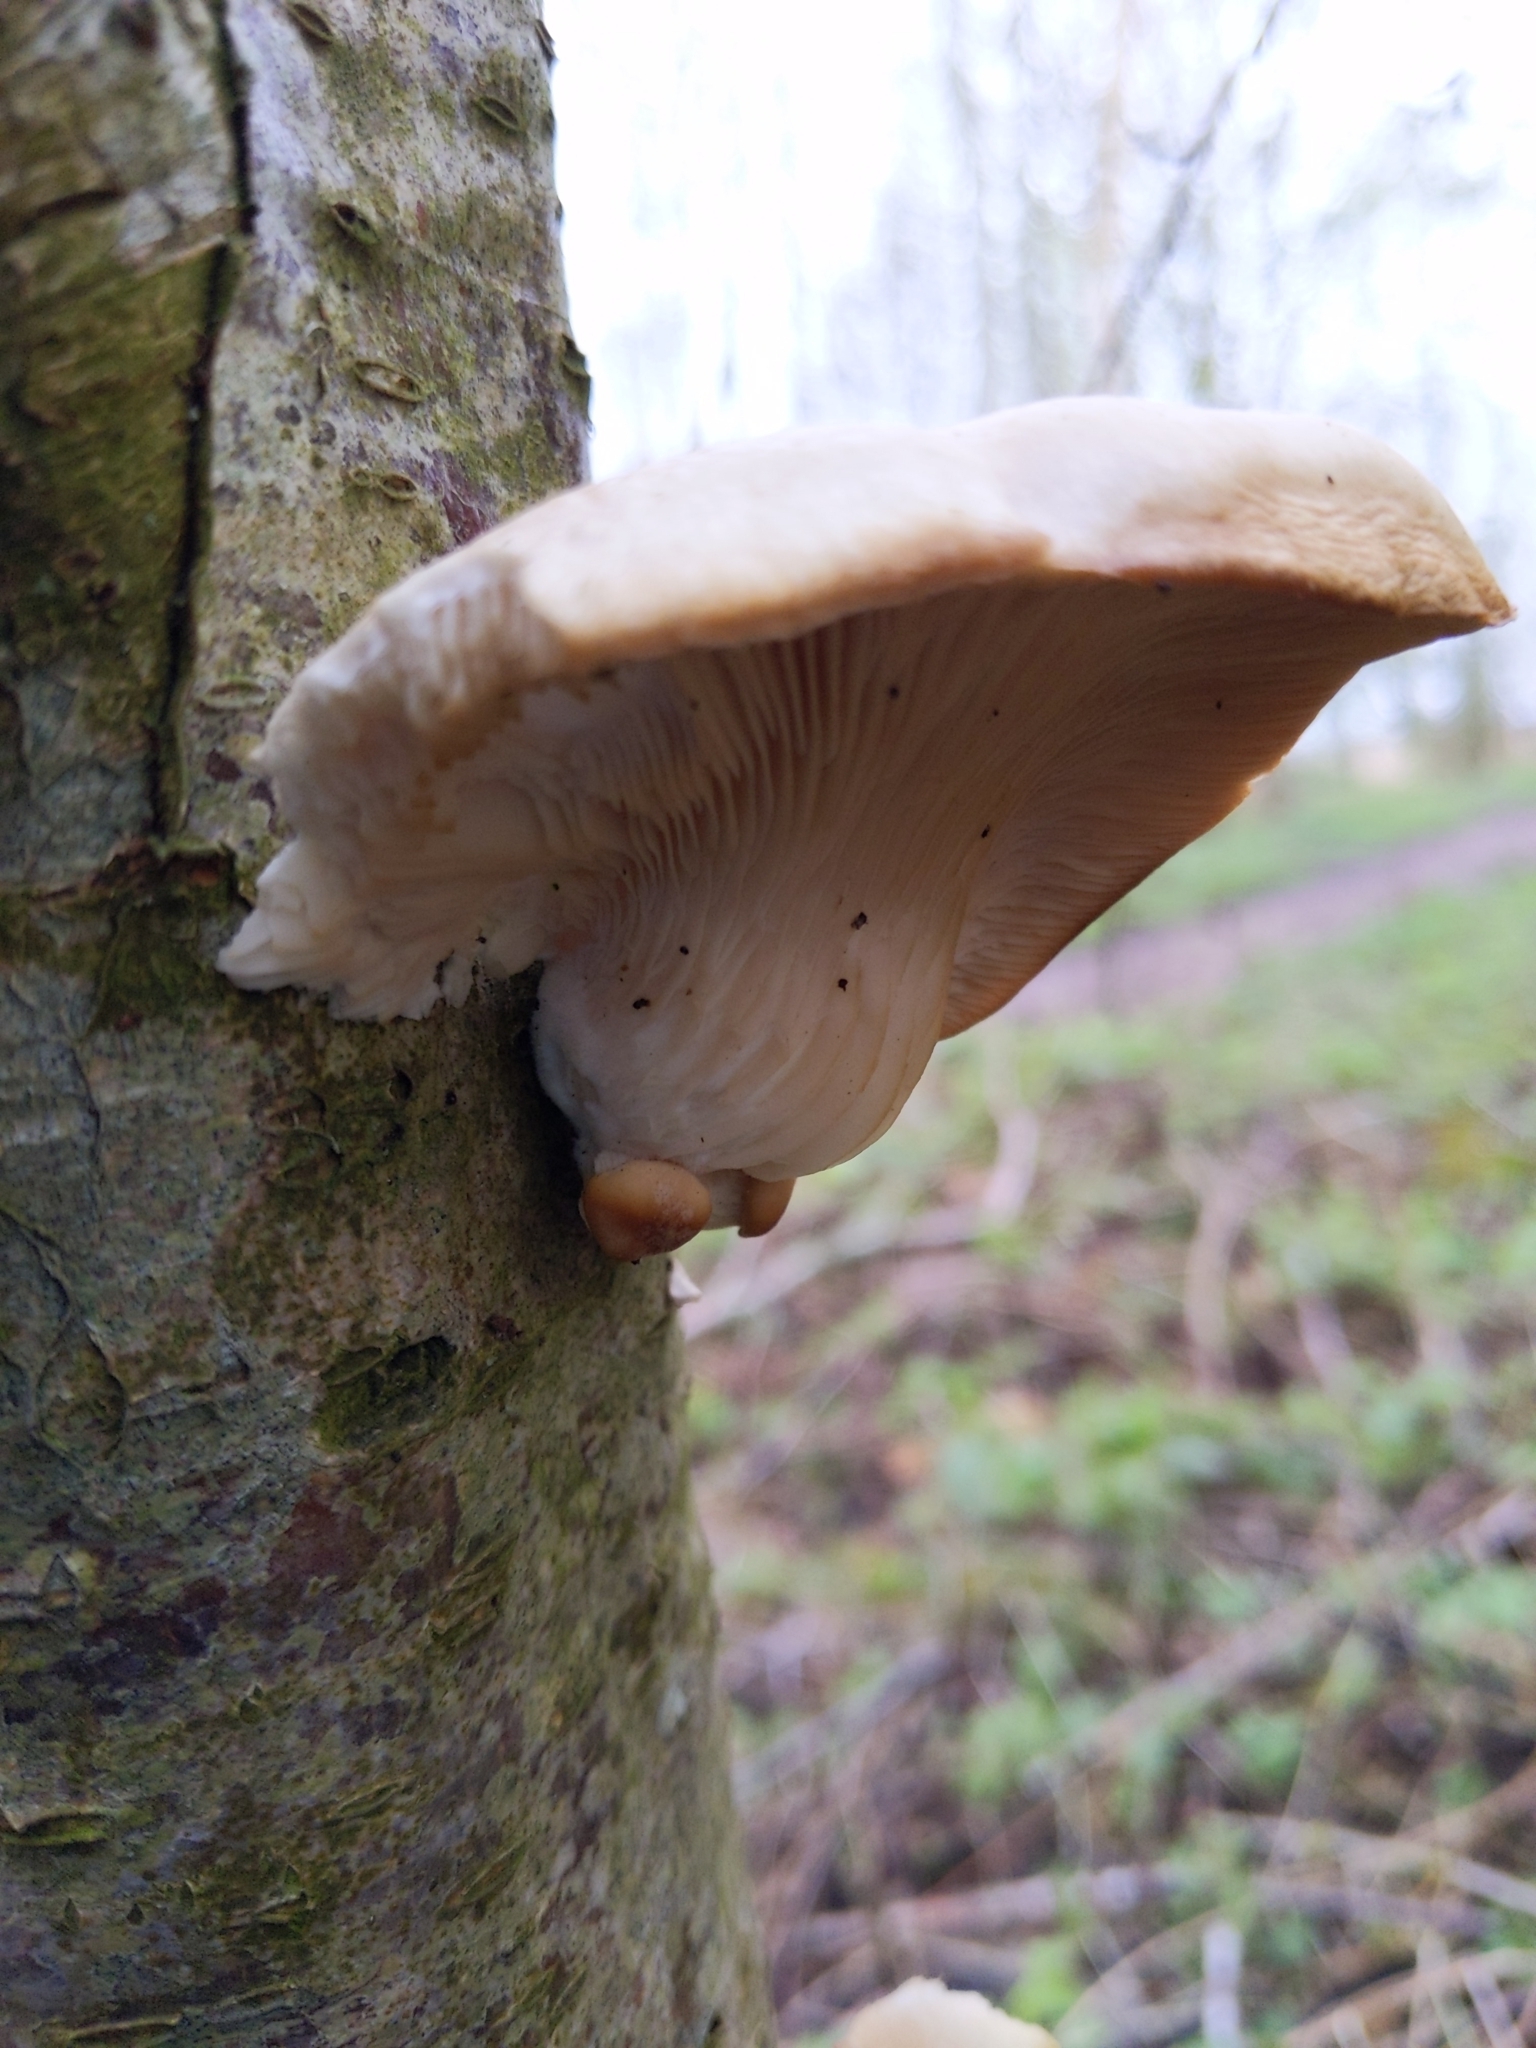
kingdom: Fungi
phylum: Basidiomycota
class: Agaricomycetes
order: Agaricales
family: Pleurotaceae
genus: Pleurotus
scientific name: Pleurotus ostreatus
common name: Oyster mushroom
